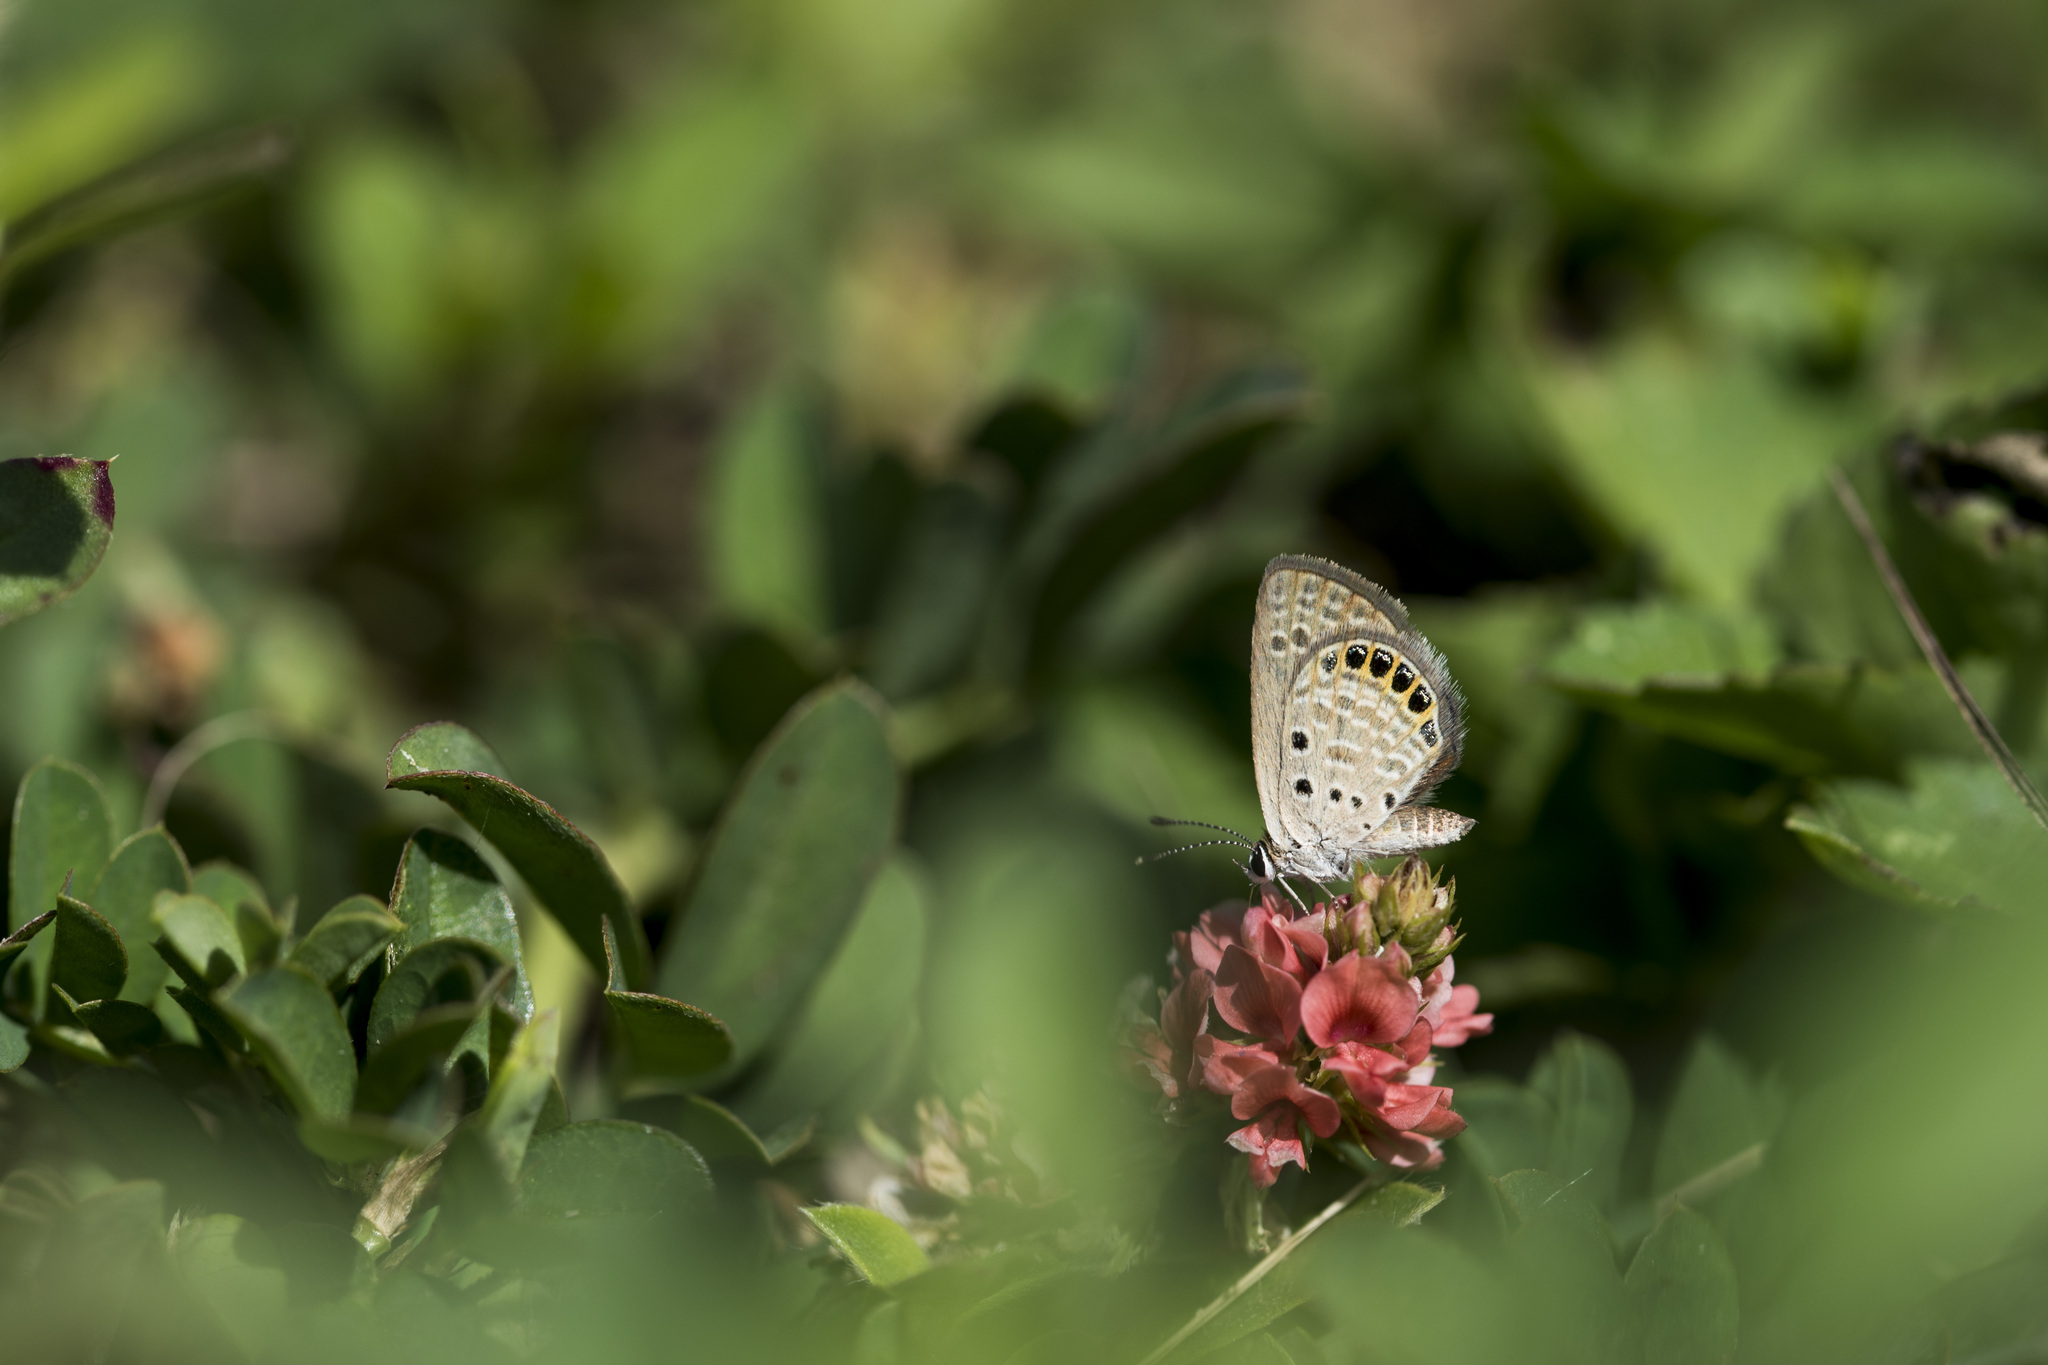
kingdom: Animalia
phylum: Arthropoda
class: Insecta
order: Lepidoptera
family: Lycaenidae
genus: Freyeria
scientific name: Freyeria putli
